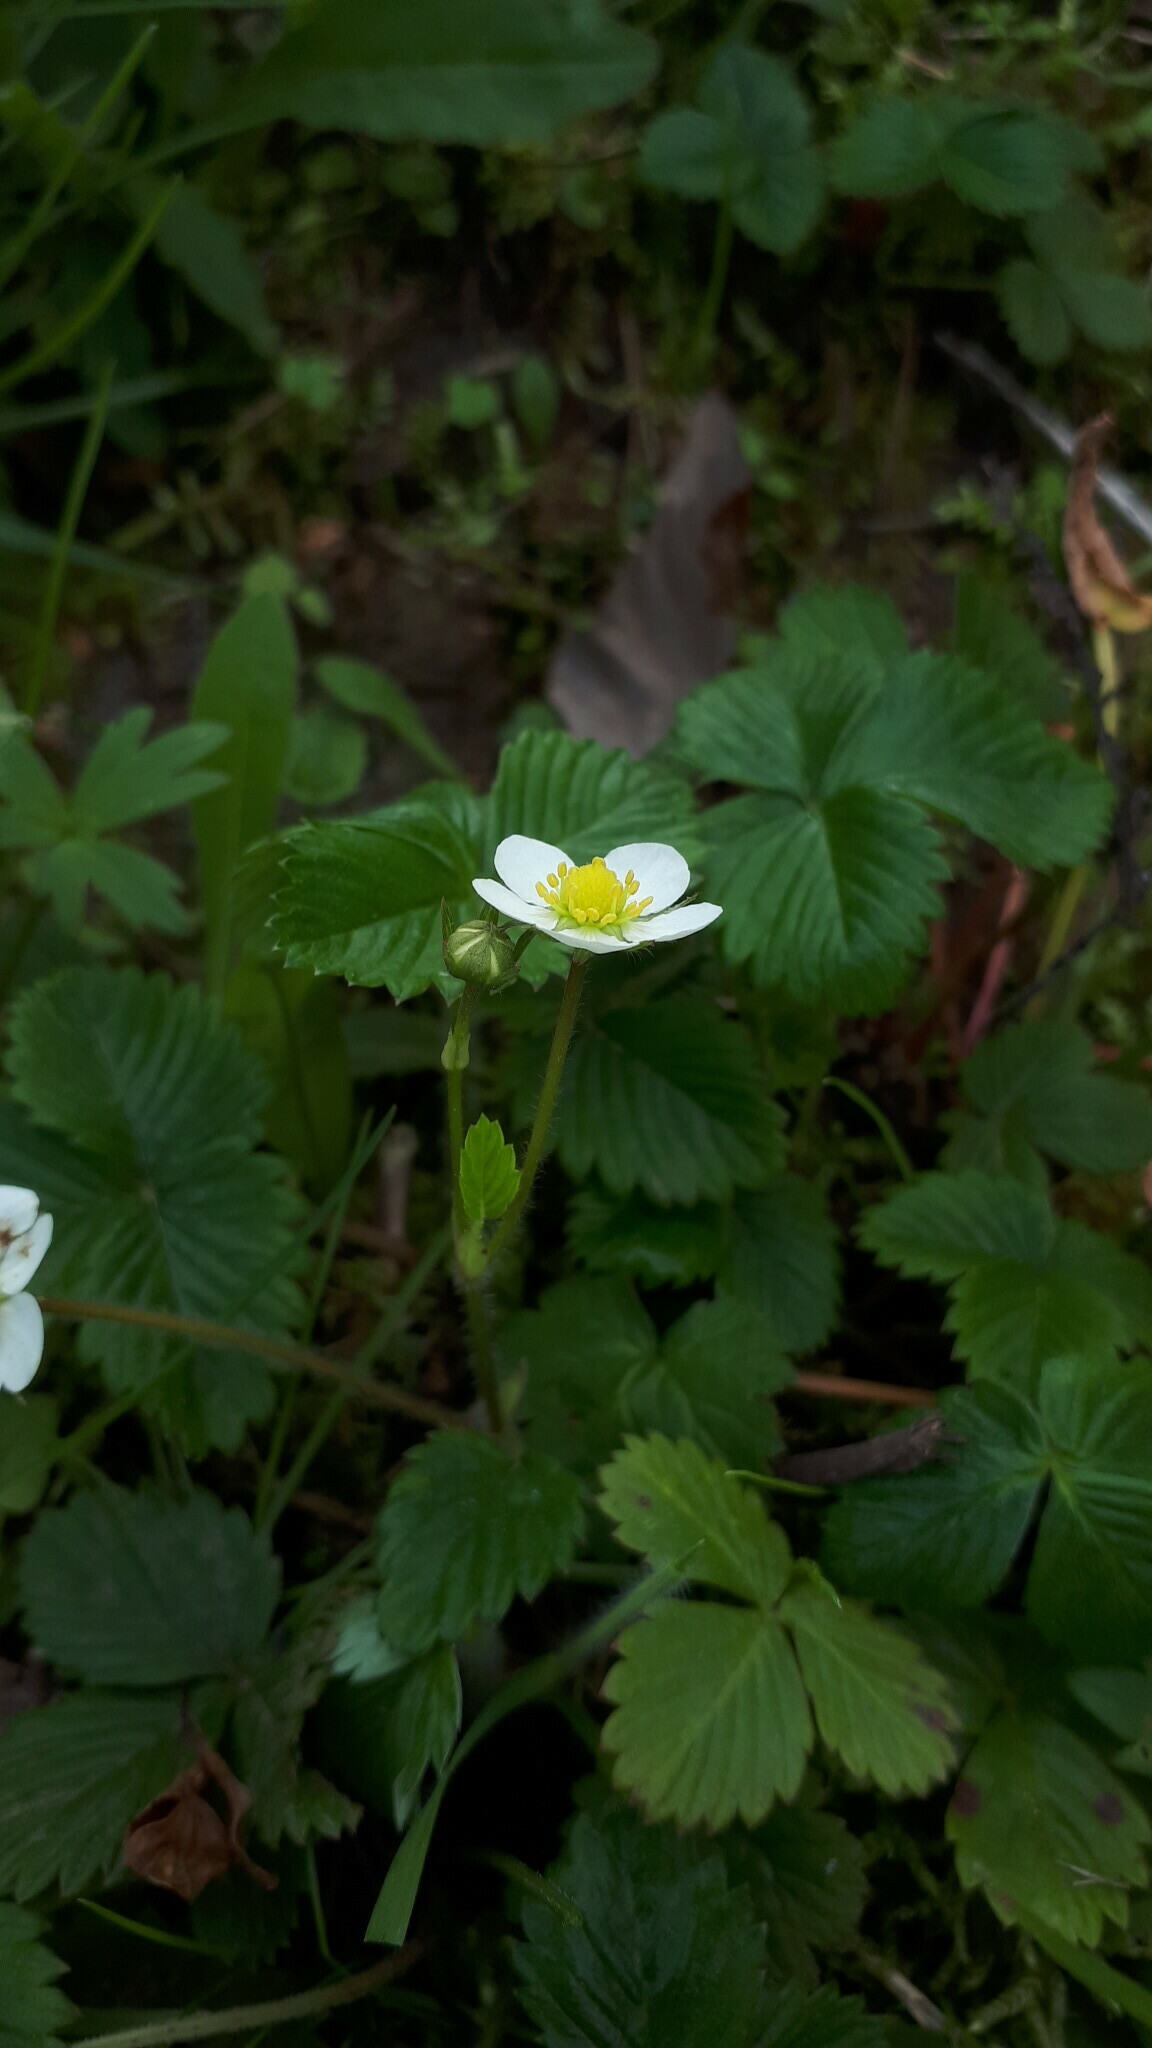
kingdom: Plantae
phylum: Tracheophyta
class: Magnoliopsida
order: Rosales
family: Rosaceae
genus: Fragaria
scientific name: Fragaria vesca
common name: Wild strawberry
